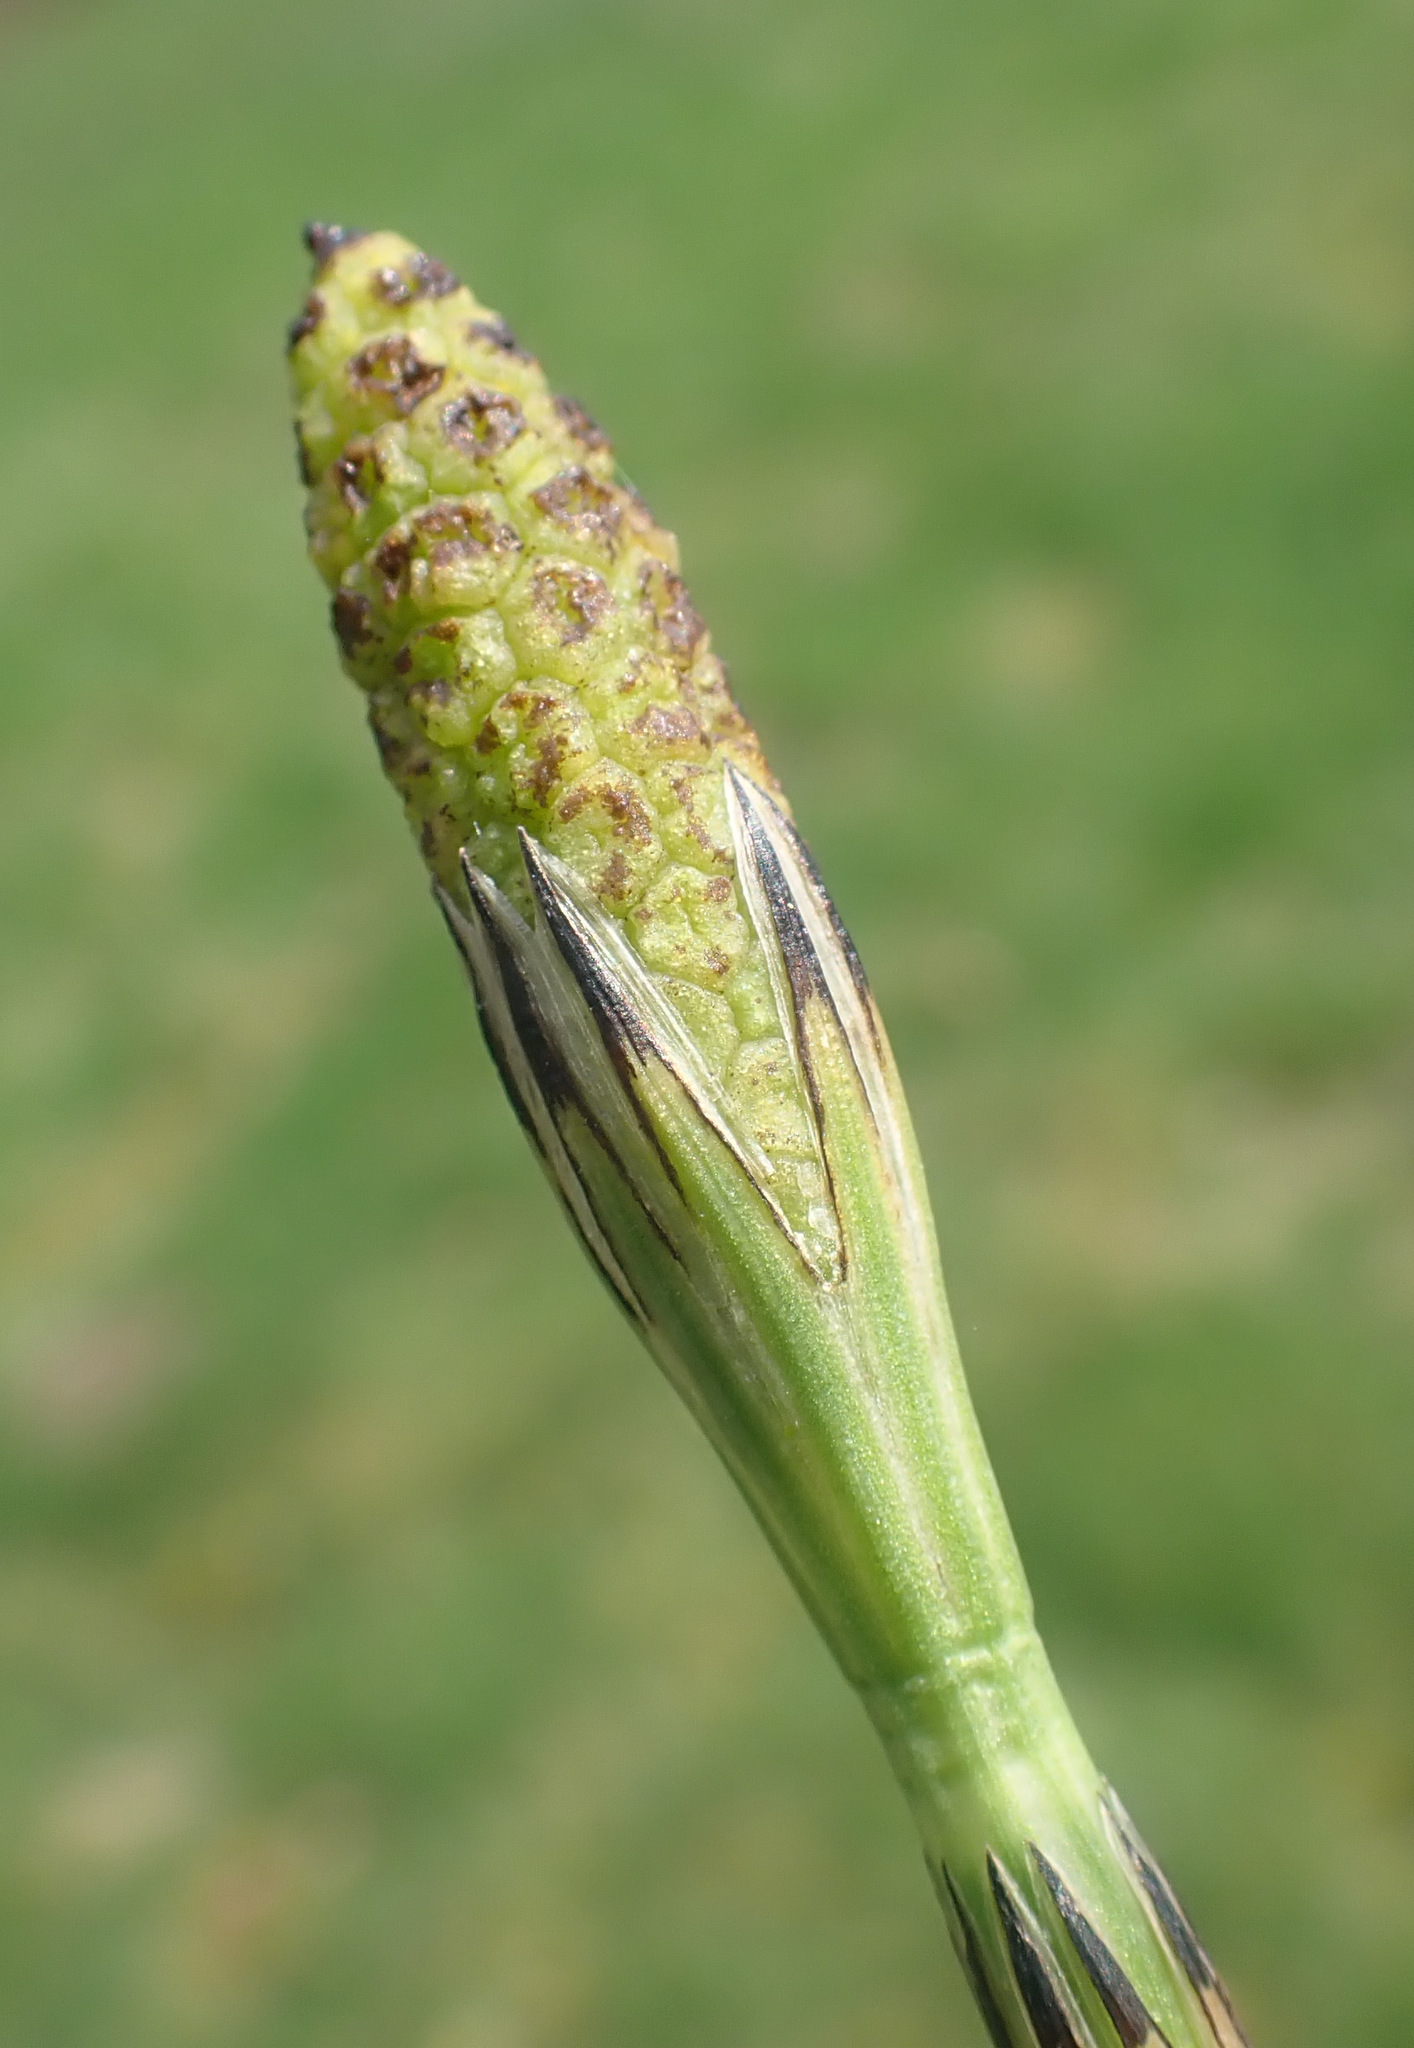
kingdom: Plantae
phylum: Tracheophyta
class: Polypodiopsida
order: Equisetales
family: Equisetaceae
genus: Equisetum
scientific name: Equisetum palustre
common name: Marsh horsetail
